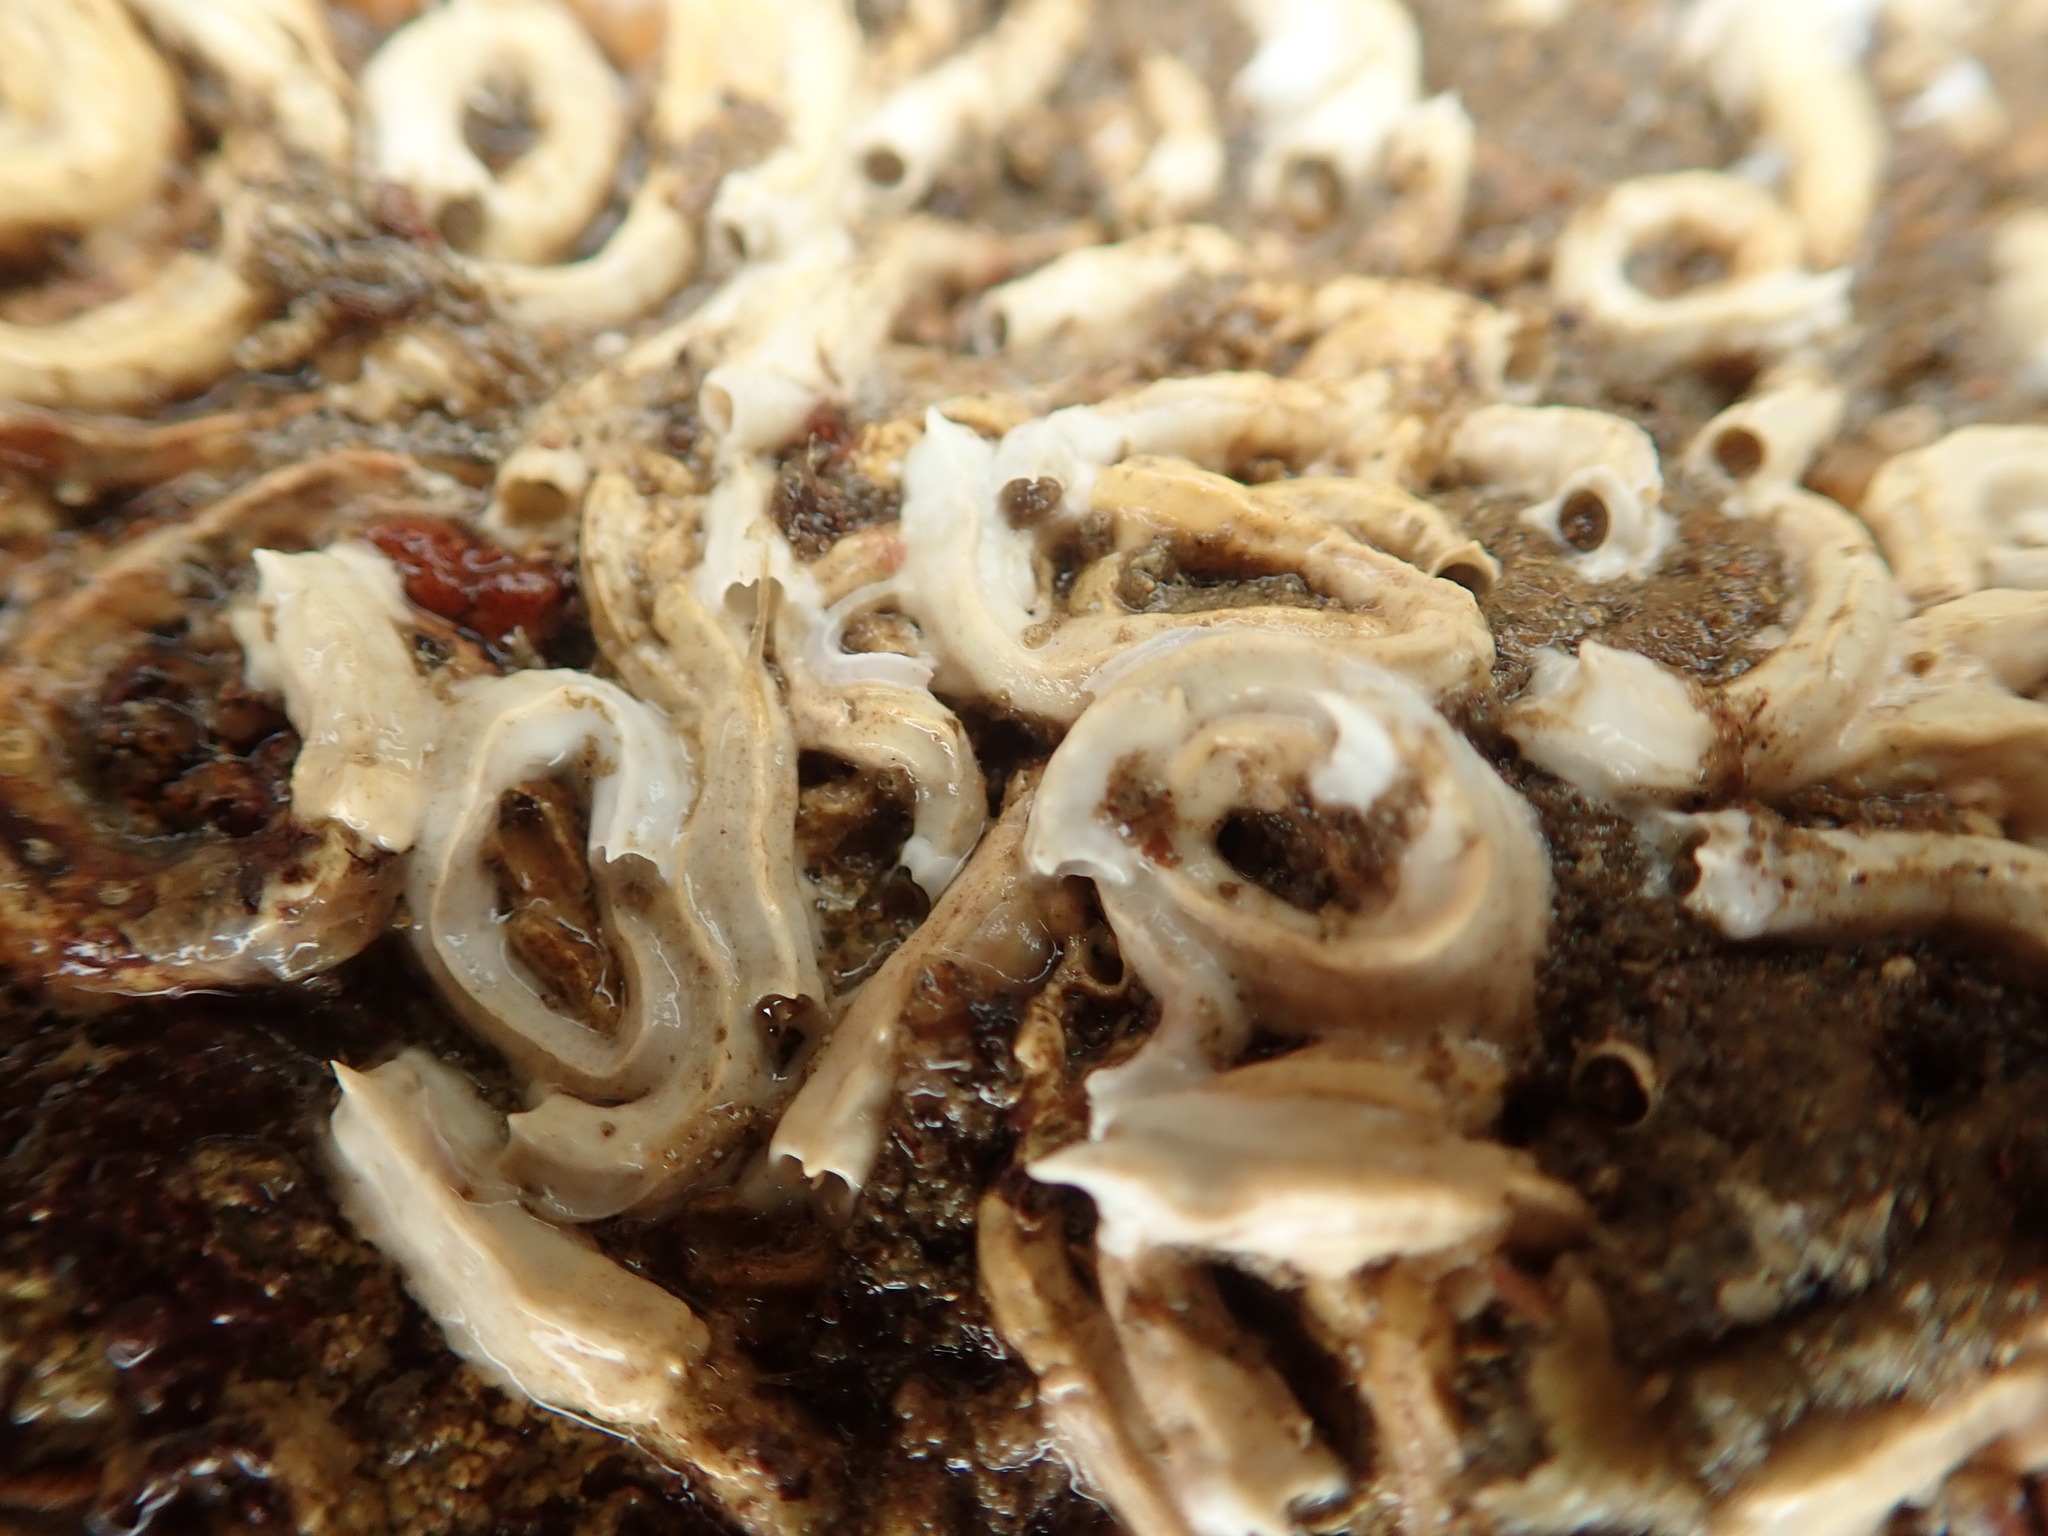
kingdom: Animalia
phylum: Annelida
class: Polychaeta
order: Sabellida
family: Serpulidae
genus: Spirobranchus
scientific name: Spirobranchus triqueter
